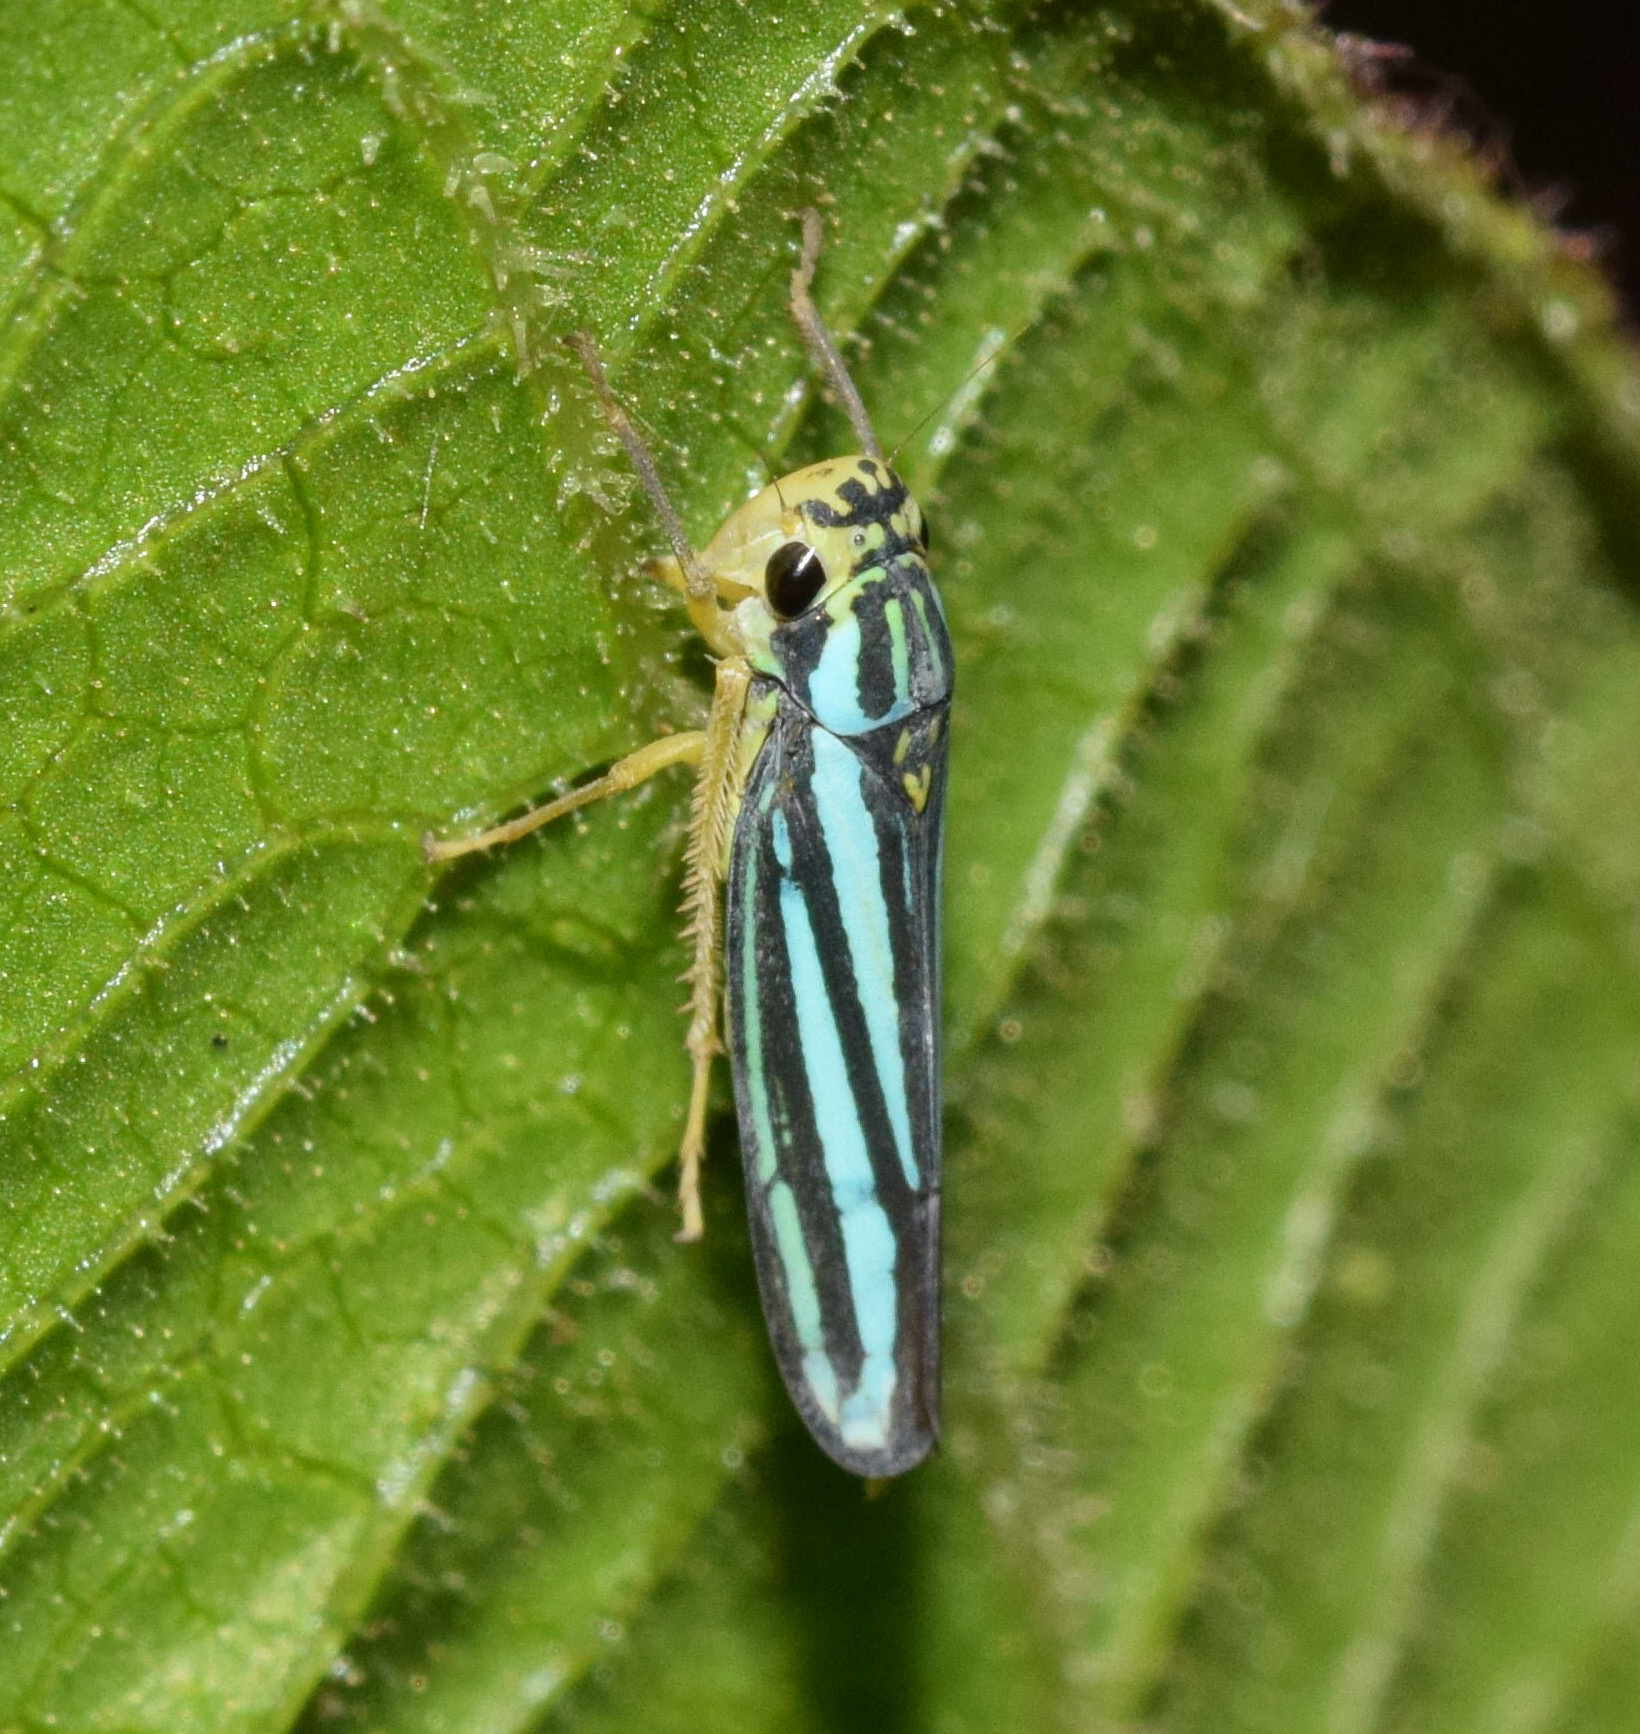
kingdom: Animalia
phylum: Arthropoda
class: Insecta
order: Hemiptera
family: Cicadellidae
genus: Tettigoniella
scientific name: Tettigoniella cosmopolita
